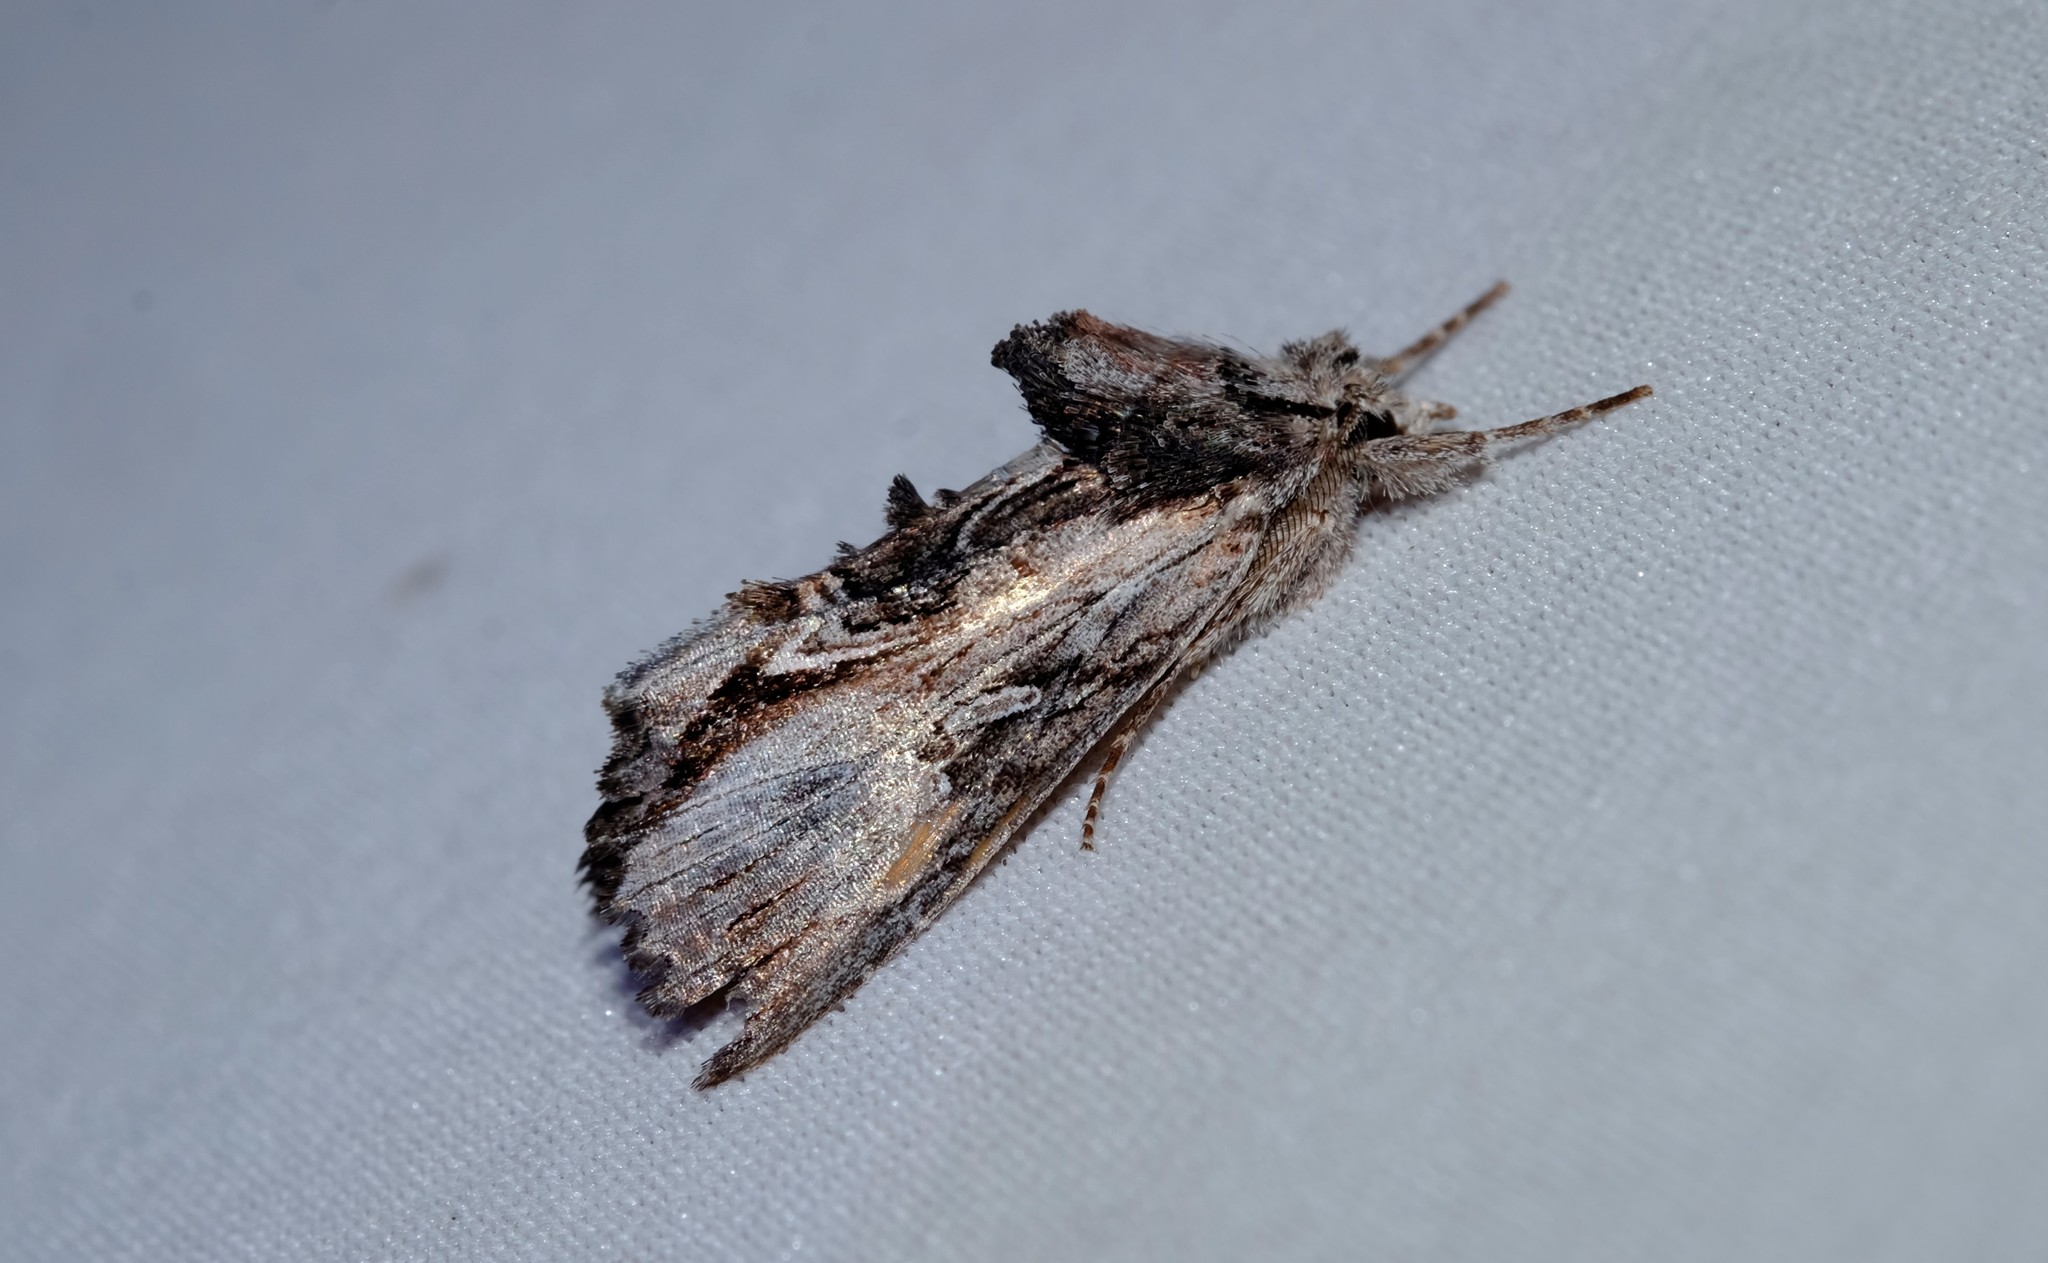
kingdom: Animalia
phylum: Arthropoda
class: Insecta
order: Lepidoptera
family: Noctuidae
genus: Buciara
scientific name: Buciara bipartita
